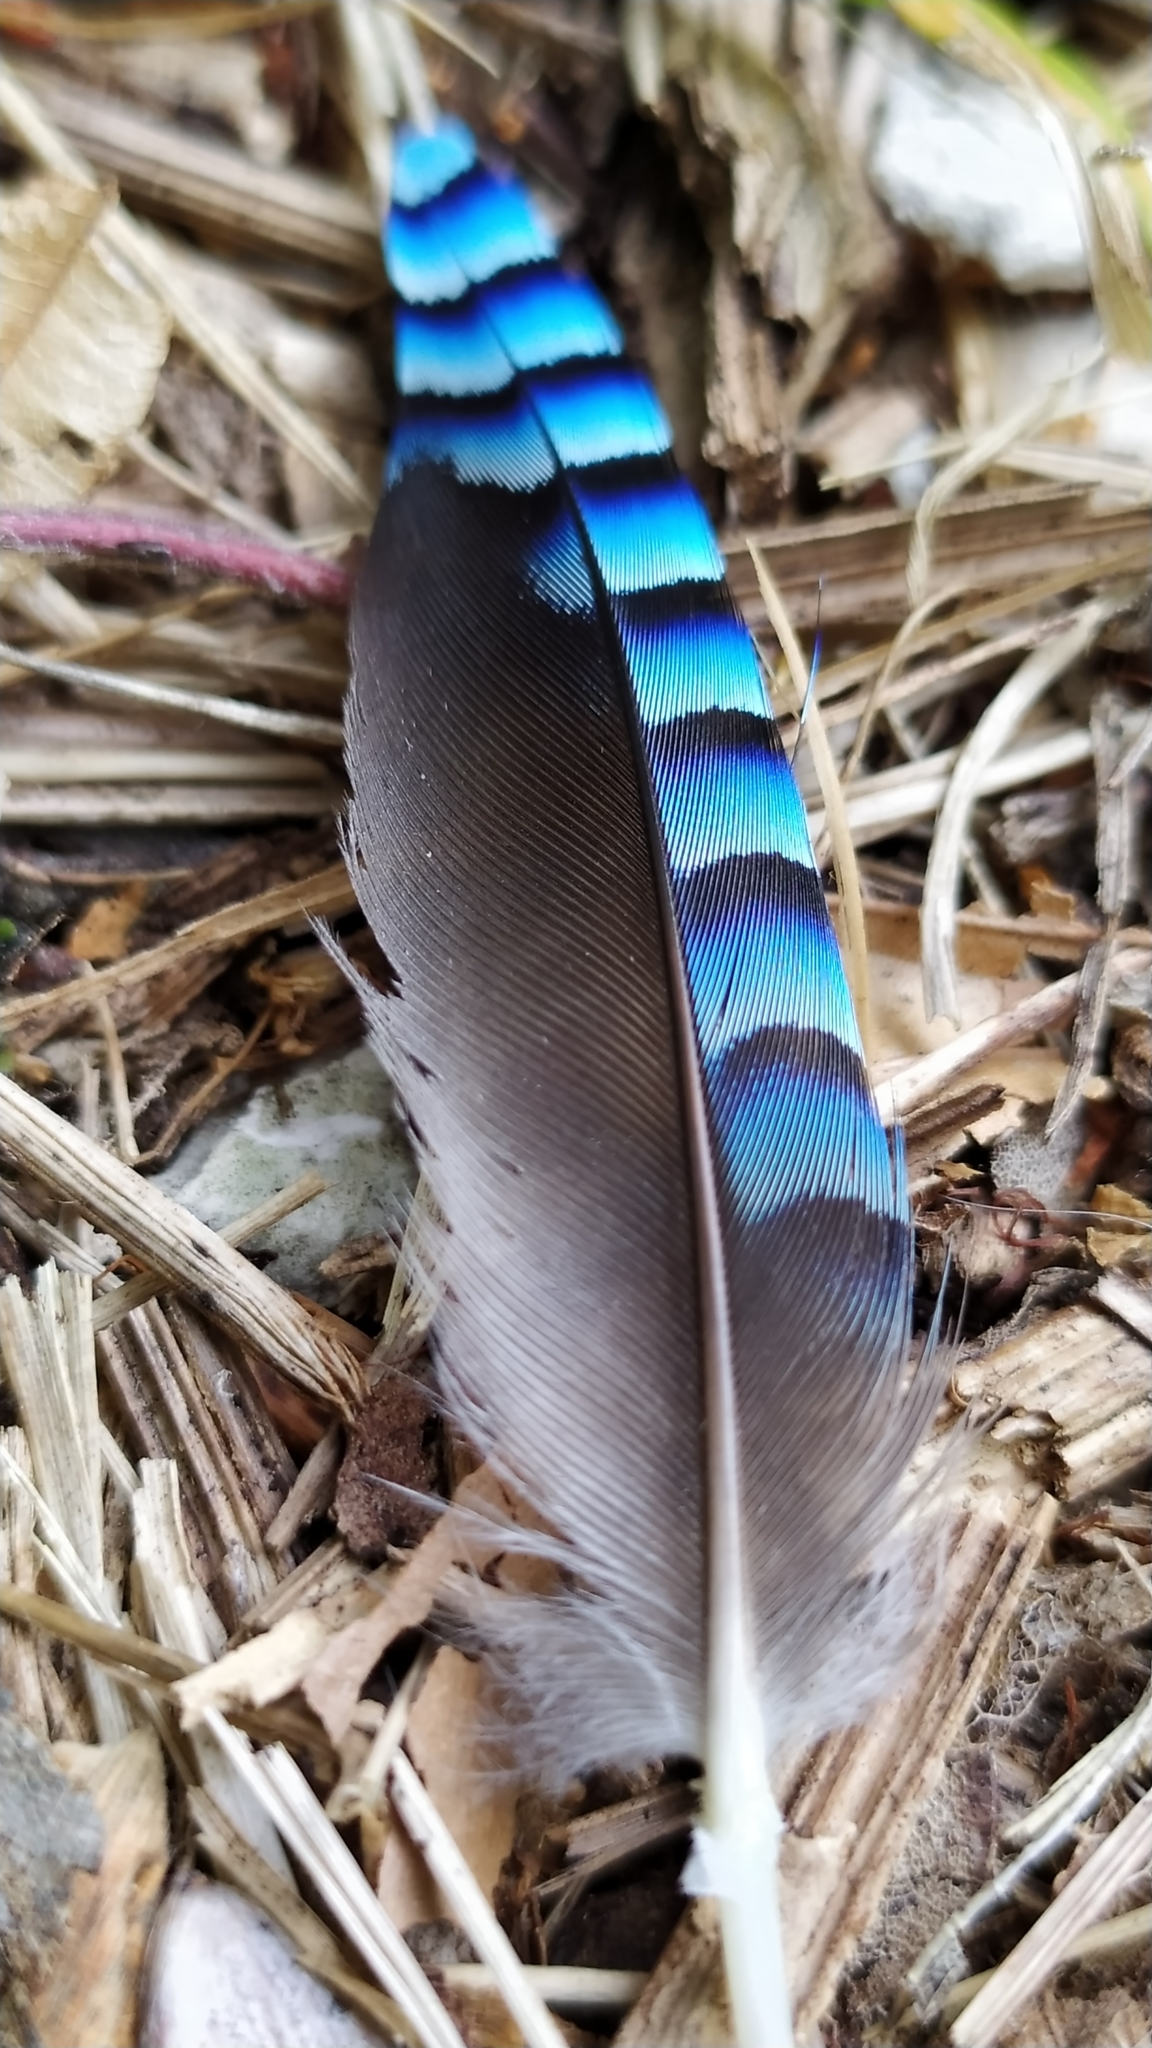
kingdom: Animalia
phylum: Chordata
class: Aves
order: Passeriformes
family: Corvidae
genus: Garrulus
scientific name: Garrulus glandarius
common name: Eurasian jay
